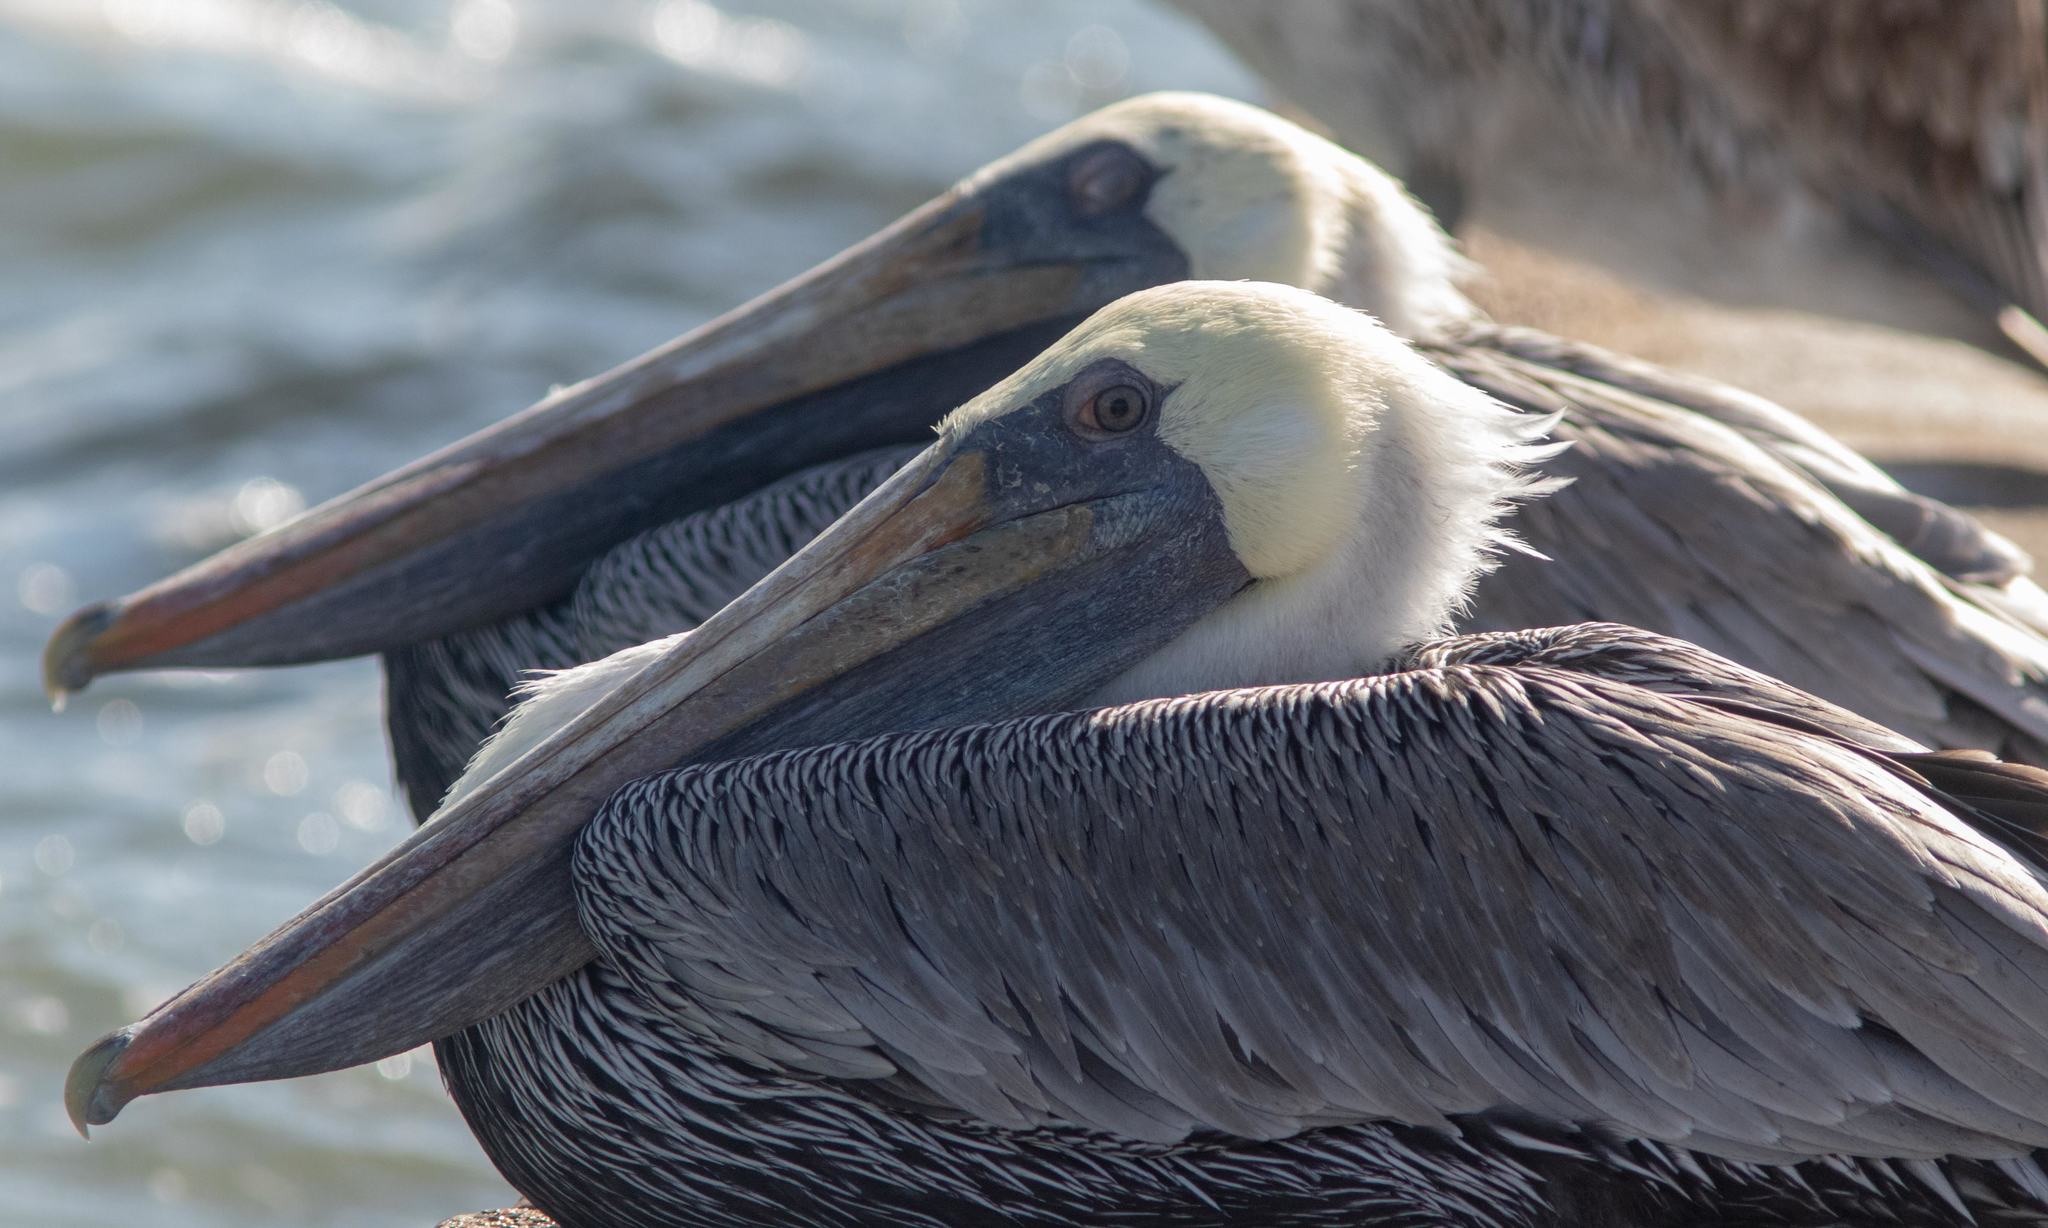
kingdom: Animalia
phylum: Chordata
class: Aves
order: Pelecaniformes
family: Pelecanidae
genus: Pelecanus
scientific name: Pelecanus occidentalis
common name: Brown pelican
